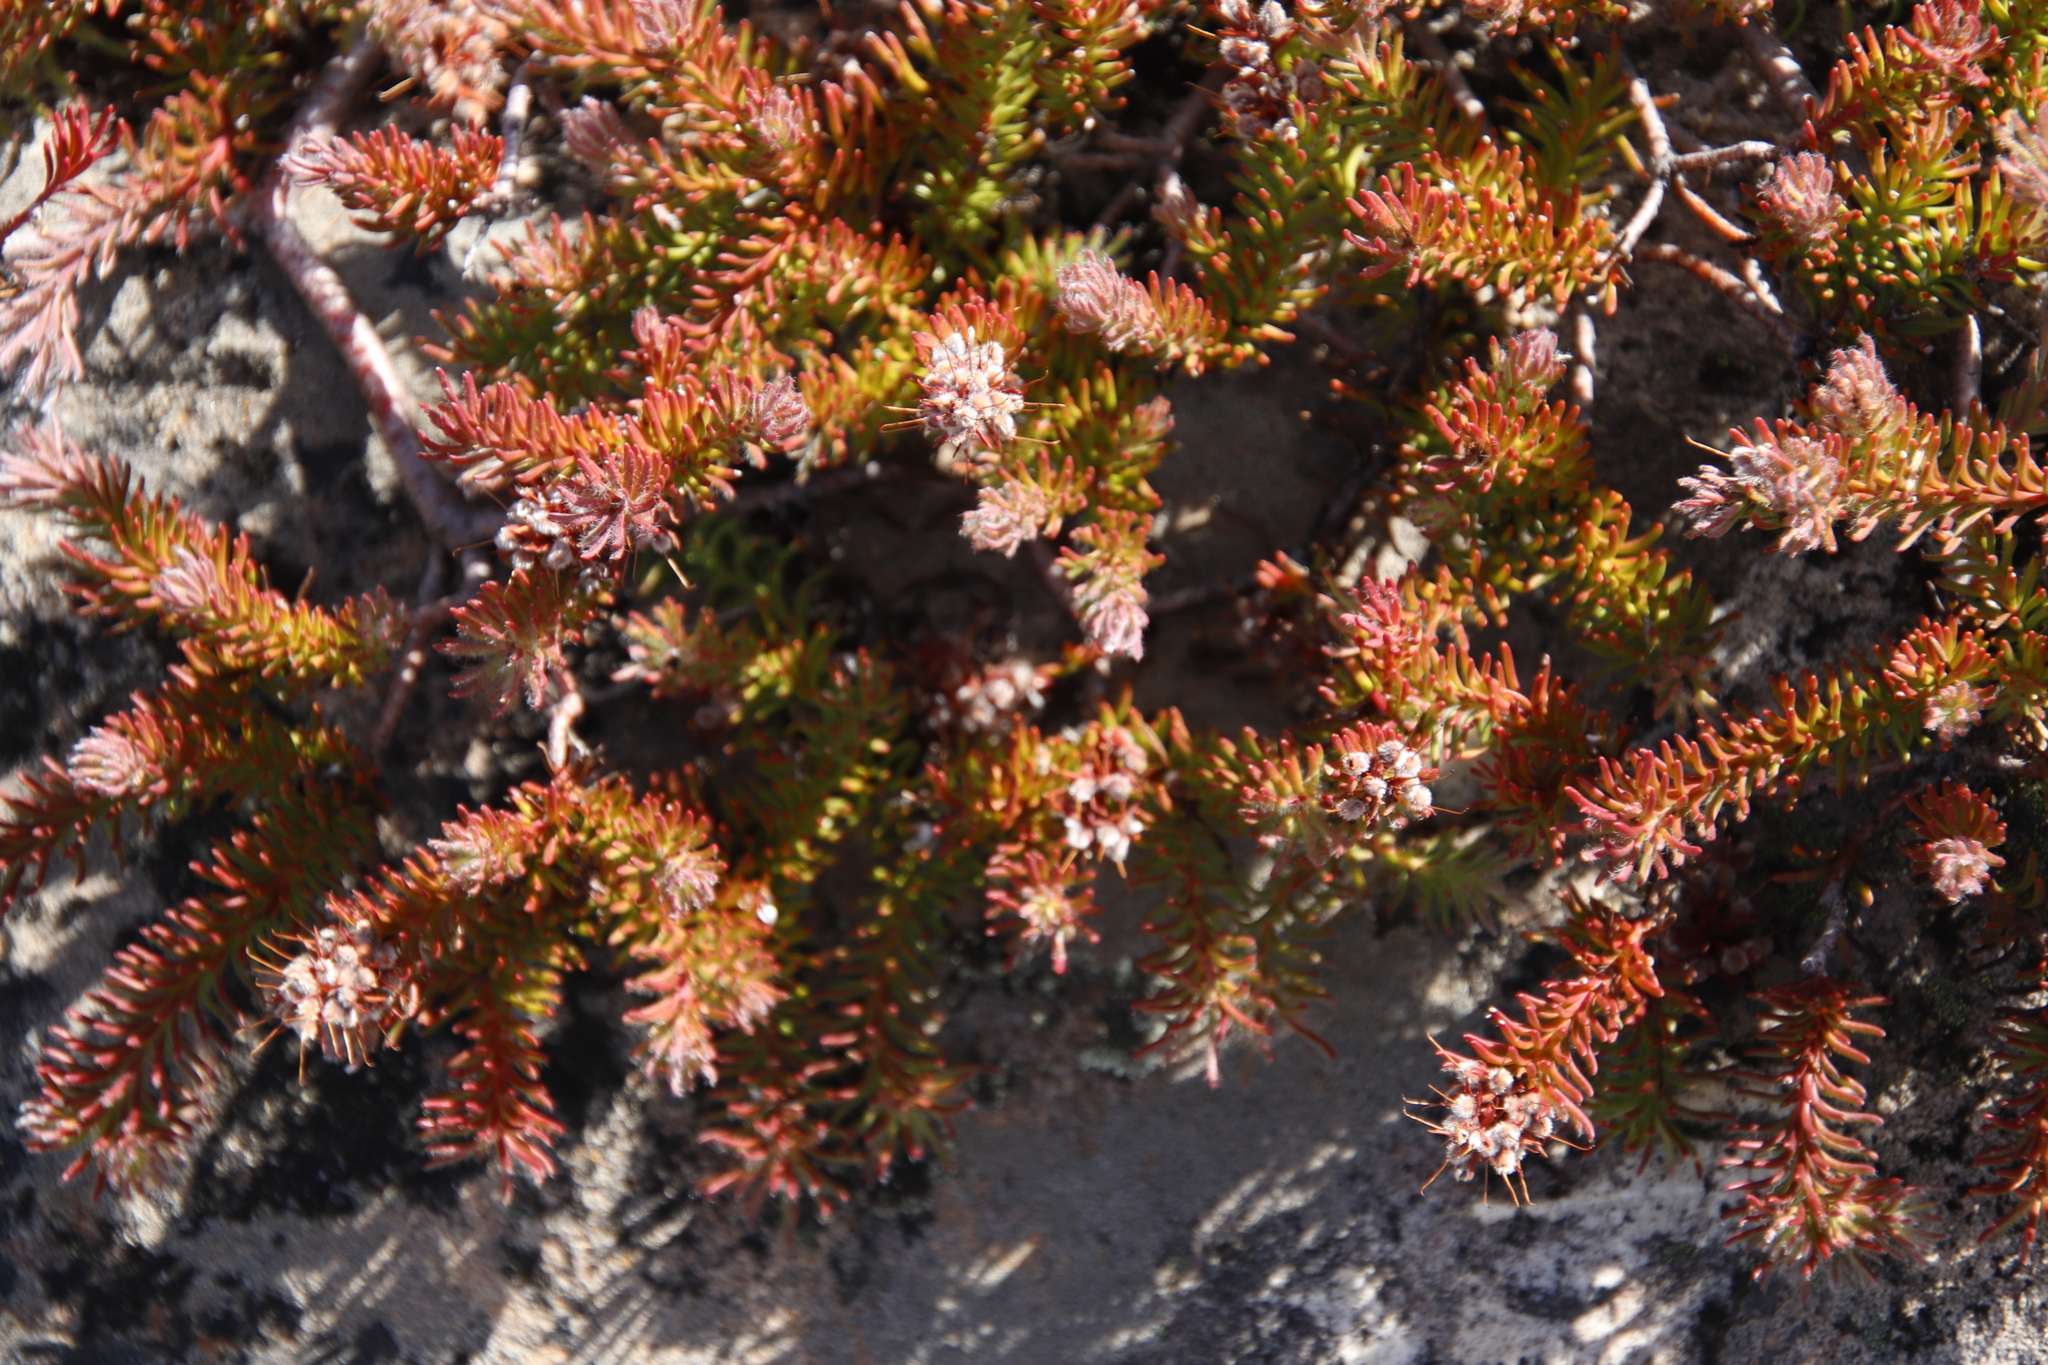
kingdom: Plantae
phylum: Tracheophyta
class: Magnoliopsida
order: Proteales
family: Proteaceae
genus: Spatalla
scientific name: Spatalla confusa
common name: Long-tube spoon
